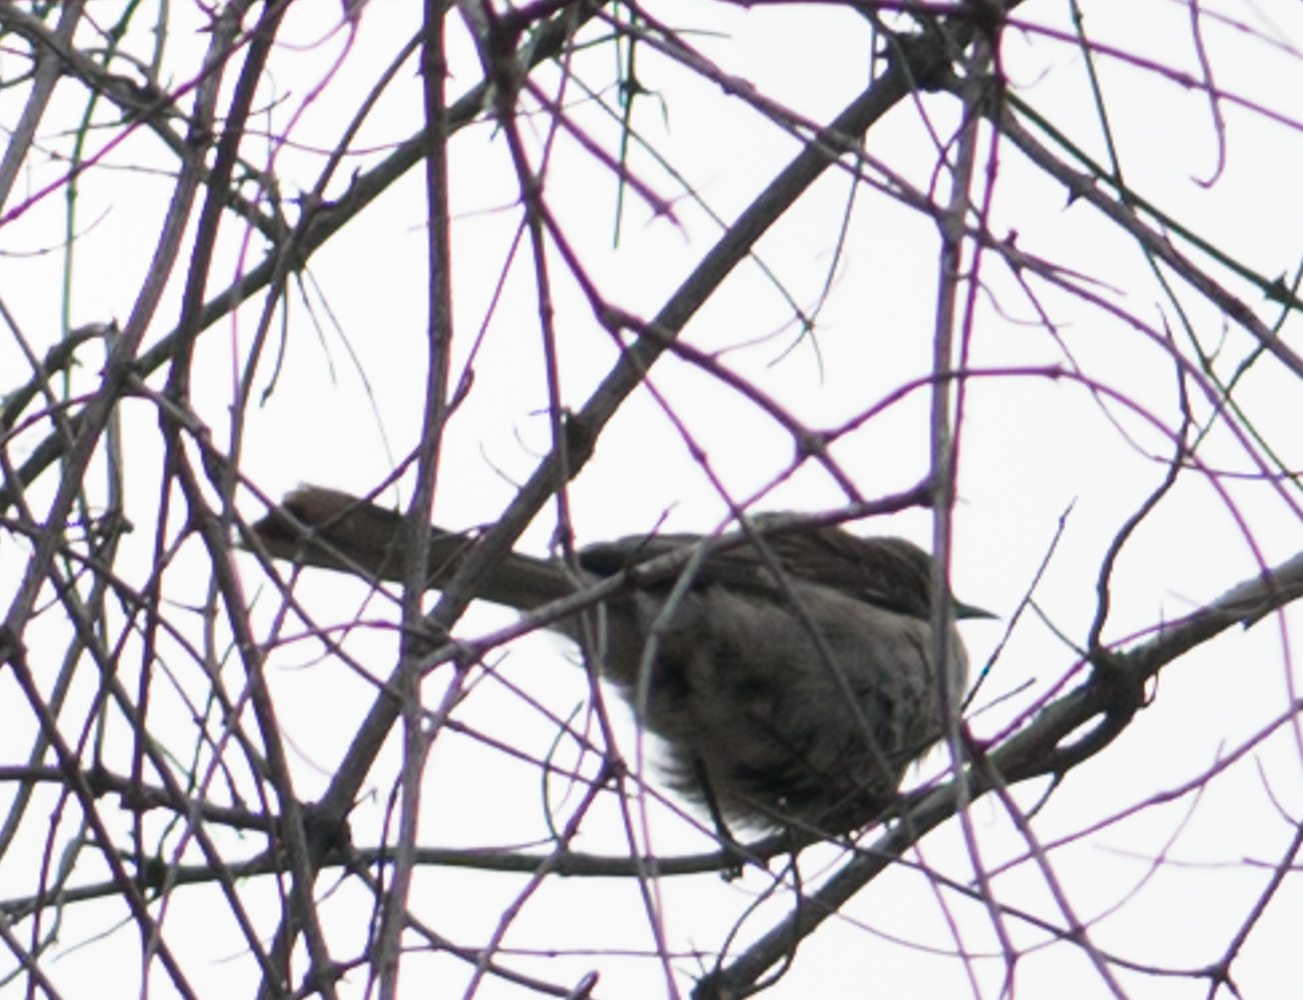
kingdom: Animalia
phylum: Chordata
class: Aves
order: Passeriformes
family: Mimidae
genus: Mimus
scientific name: Mimus polyglottos
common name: Northern mockingbird
